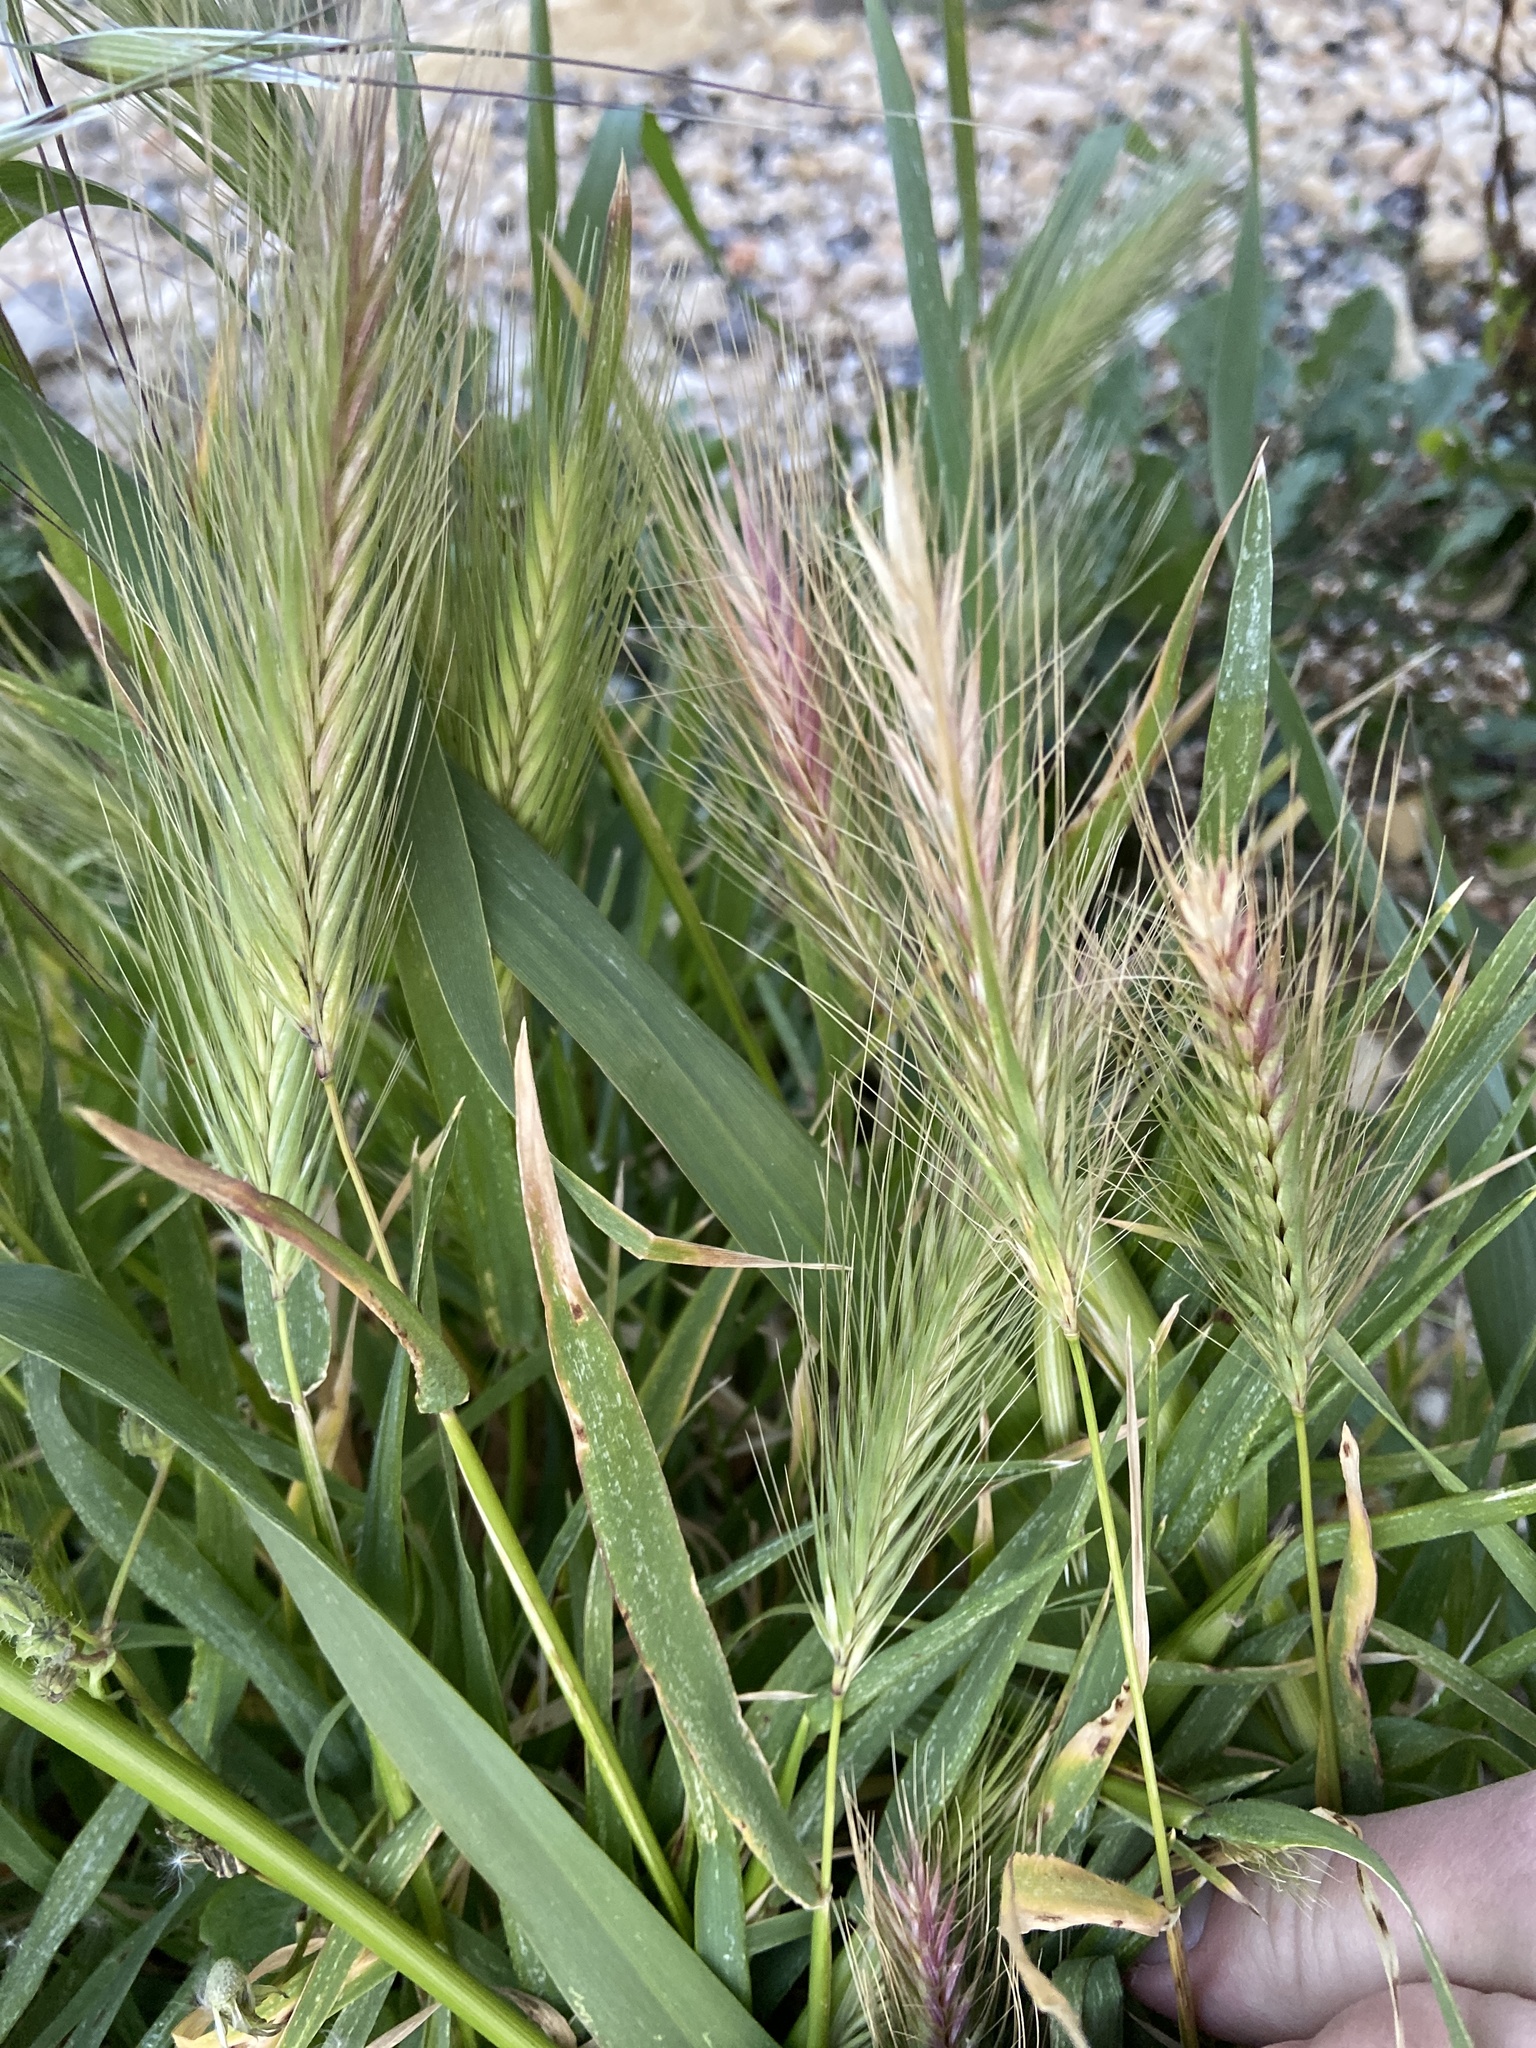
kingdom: Plantae
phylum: Tracheophyta
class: Liliopsida
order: Poales
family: Poaceae
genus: Hordeum
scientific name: Hordeum murinum
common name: Wall barley
